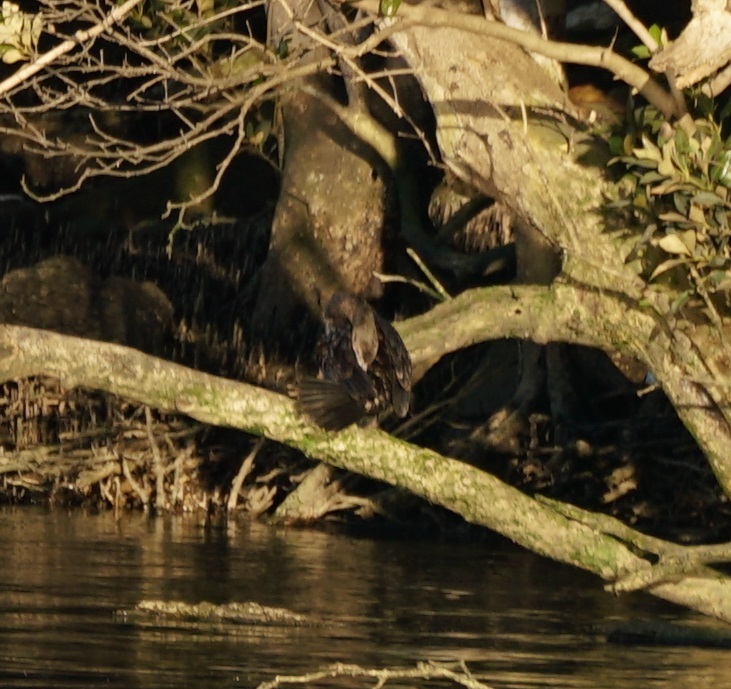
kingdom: Animalia
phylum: Chordata
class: Aves
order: Suliformes
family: Phalacrocoracidae
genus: Phalacrocorax
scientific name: Phalacrocorax sulcirostris
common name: Little black cormorant
